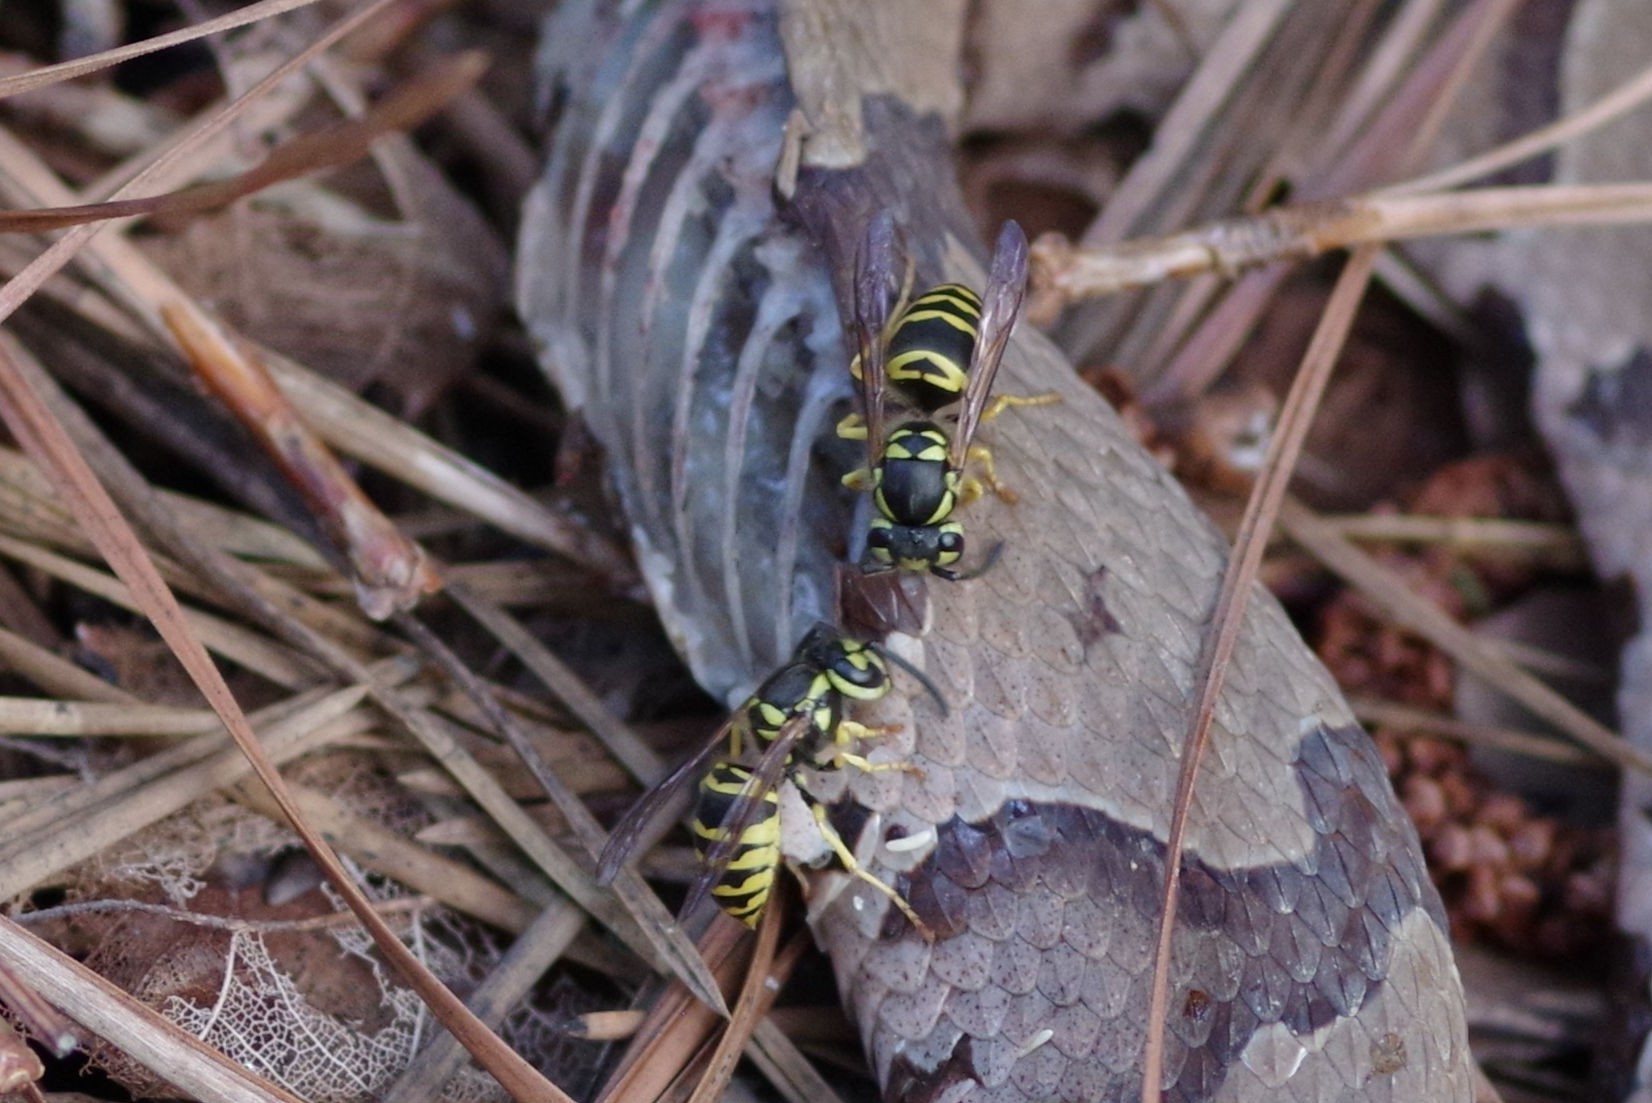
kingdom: Animalia
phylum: Arthropoda
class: Insecta
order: Hymenoptera
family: Vespidae
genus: Vespula
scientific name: Vespula maculifrons
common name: Eastern yellowjacket
